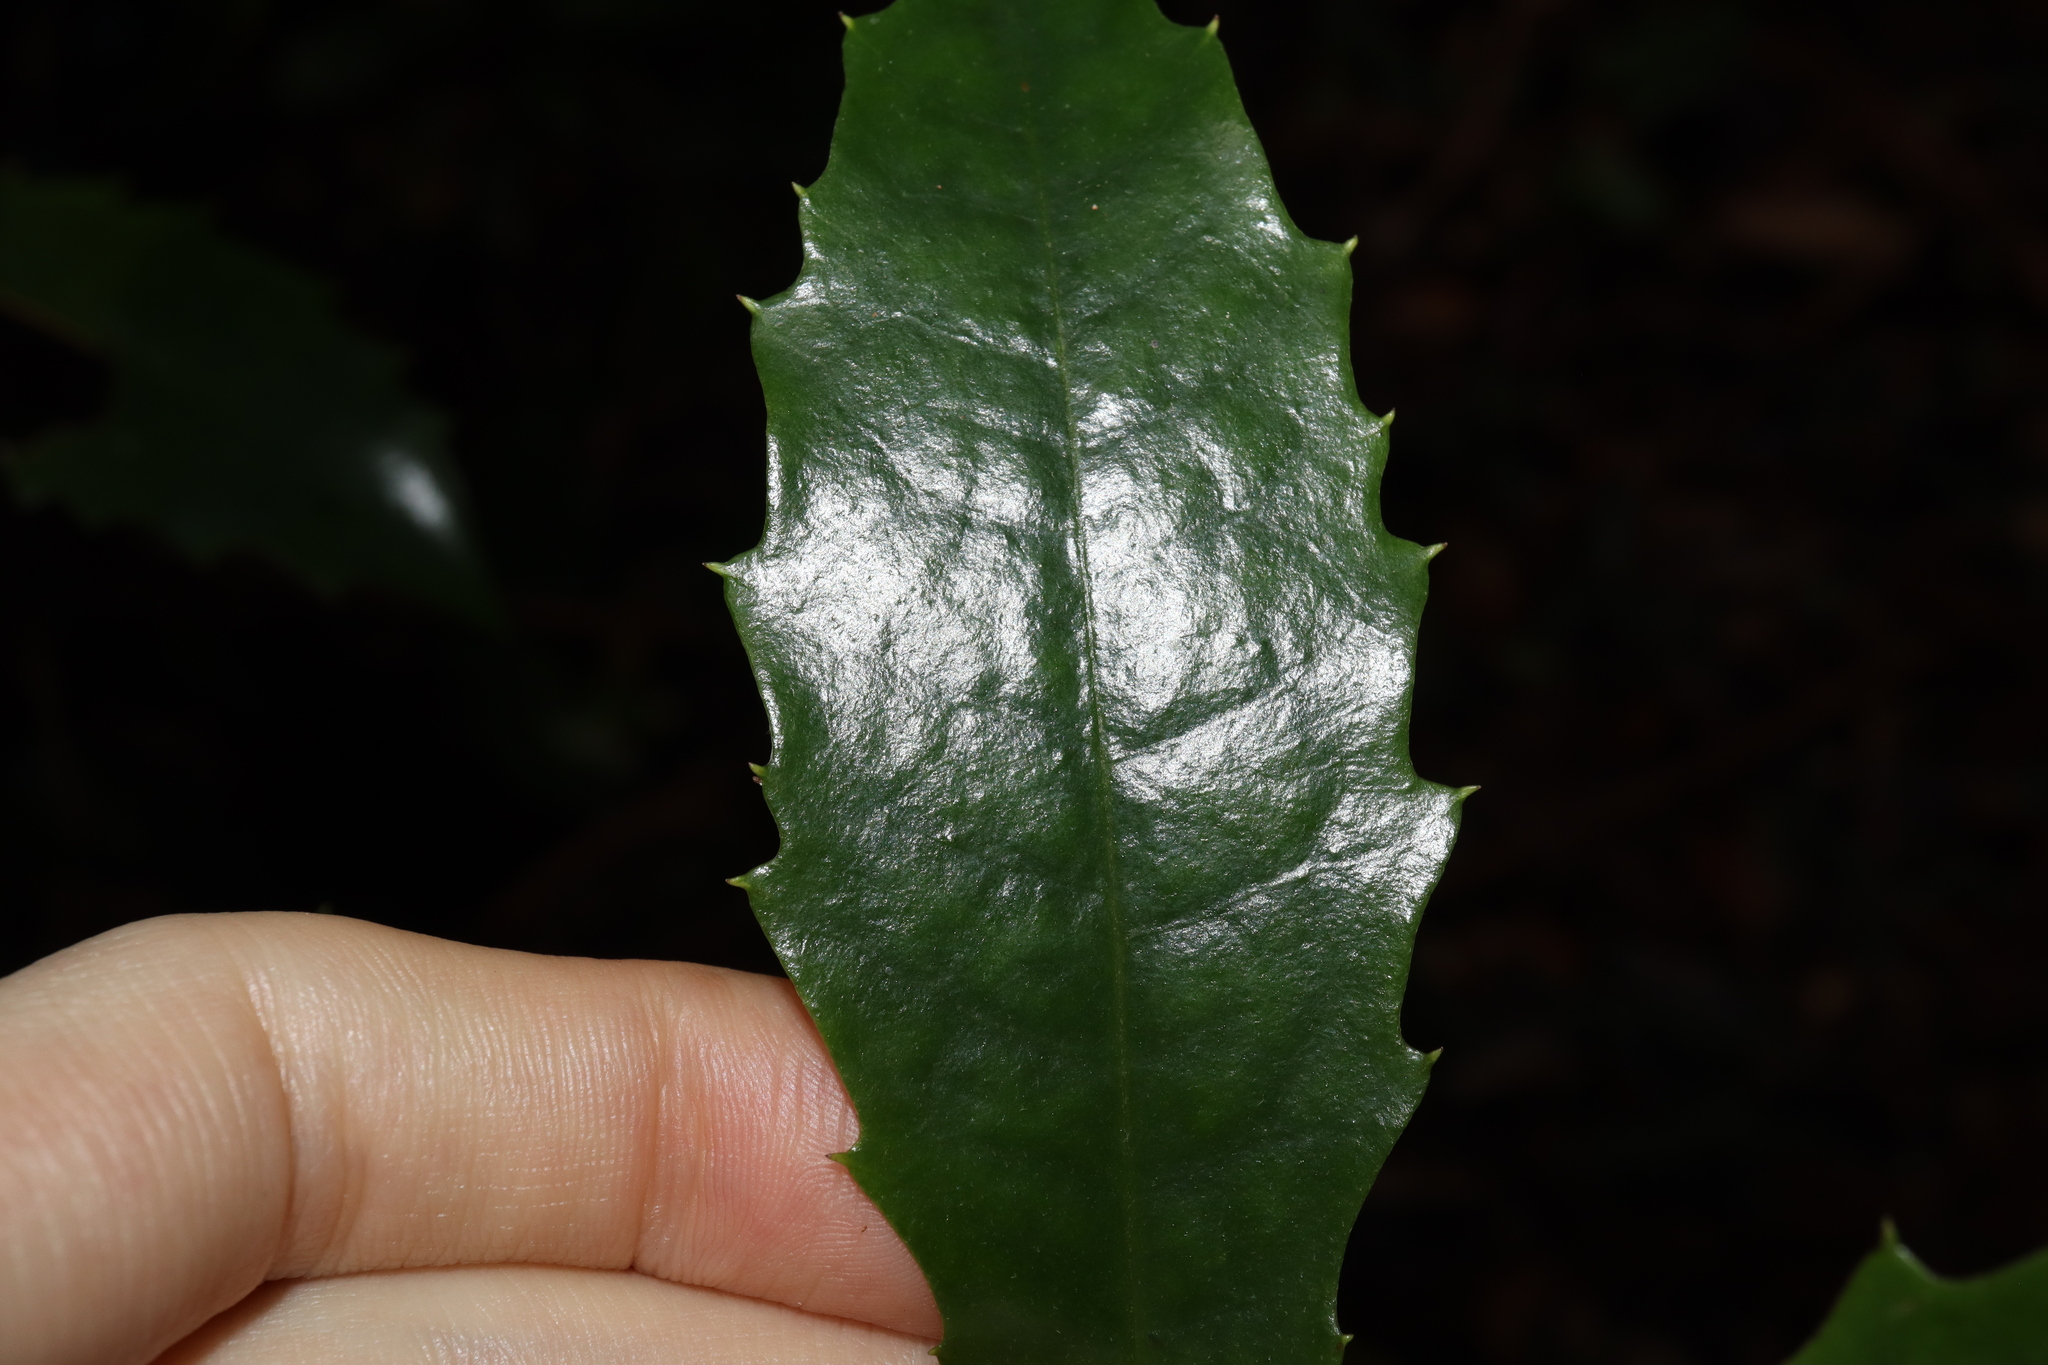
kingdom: Plantae
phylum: Tracheophyta
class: Magnoliopsida
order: Escalloniales
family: Escalloniaceae
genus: Polyosma
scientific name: Polyosma cunninghamii
